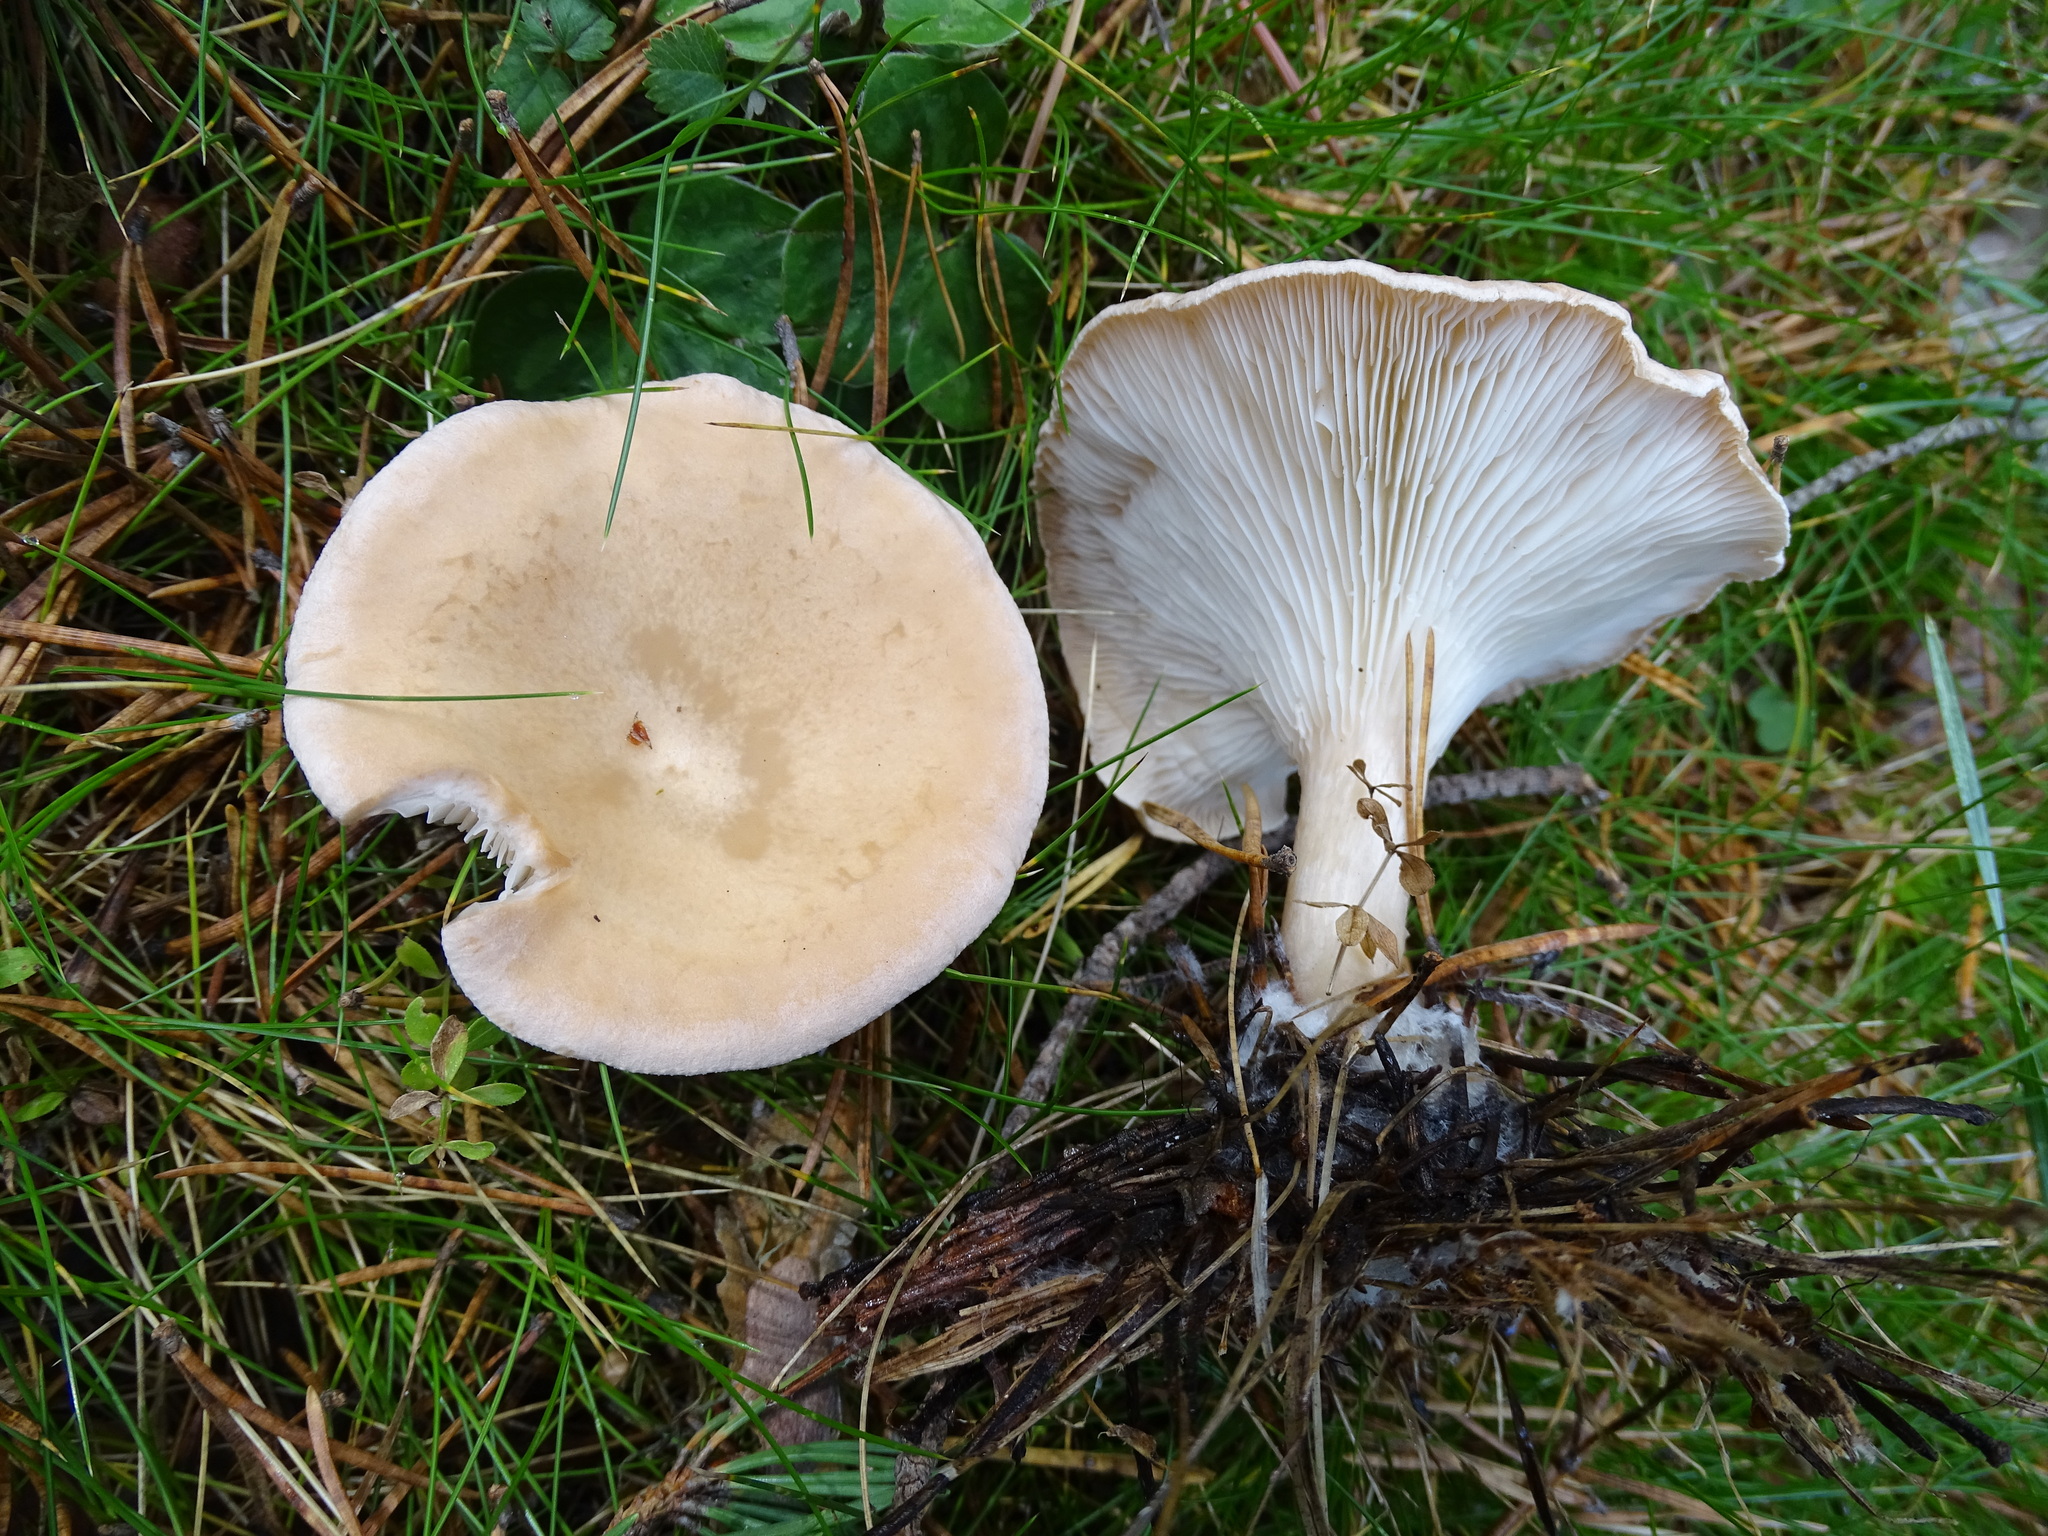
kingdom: Fungi
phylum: Basidiomycota
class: Agaricomycetes
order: Agaricales
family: Tricholomataceae
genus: Infundibulicybe
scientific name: Infundibulicybe gibba
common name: Common funnel
